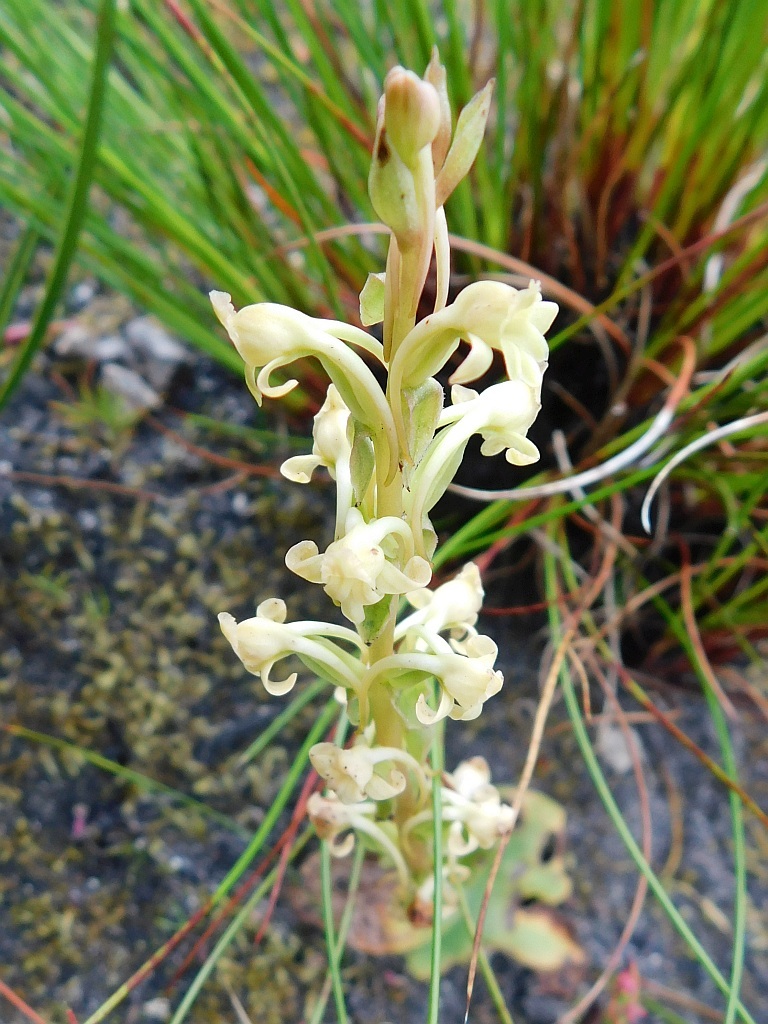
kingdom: Plantae
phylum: Tracheophyta
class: Liliopsida
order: Asparagales
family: Orchidaceae
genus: Satyrium
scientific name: Satyrium humile
